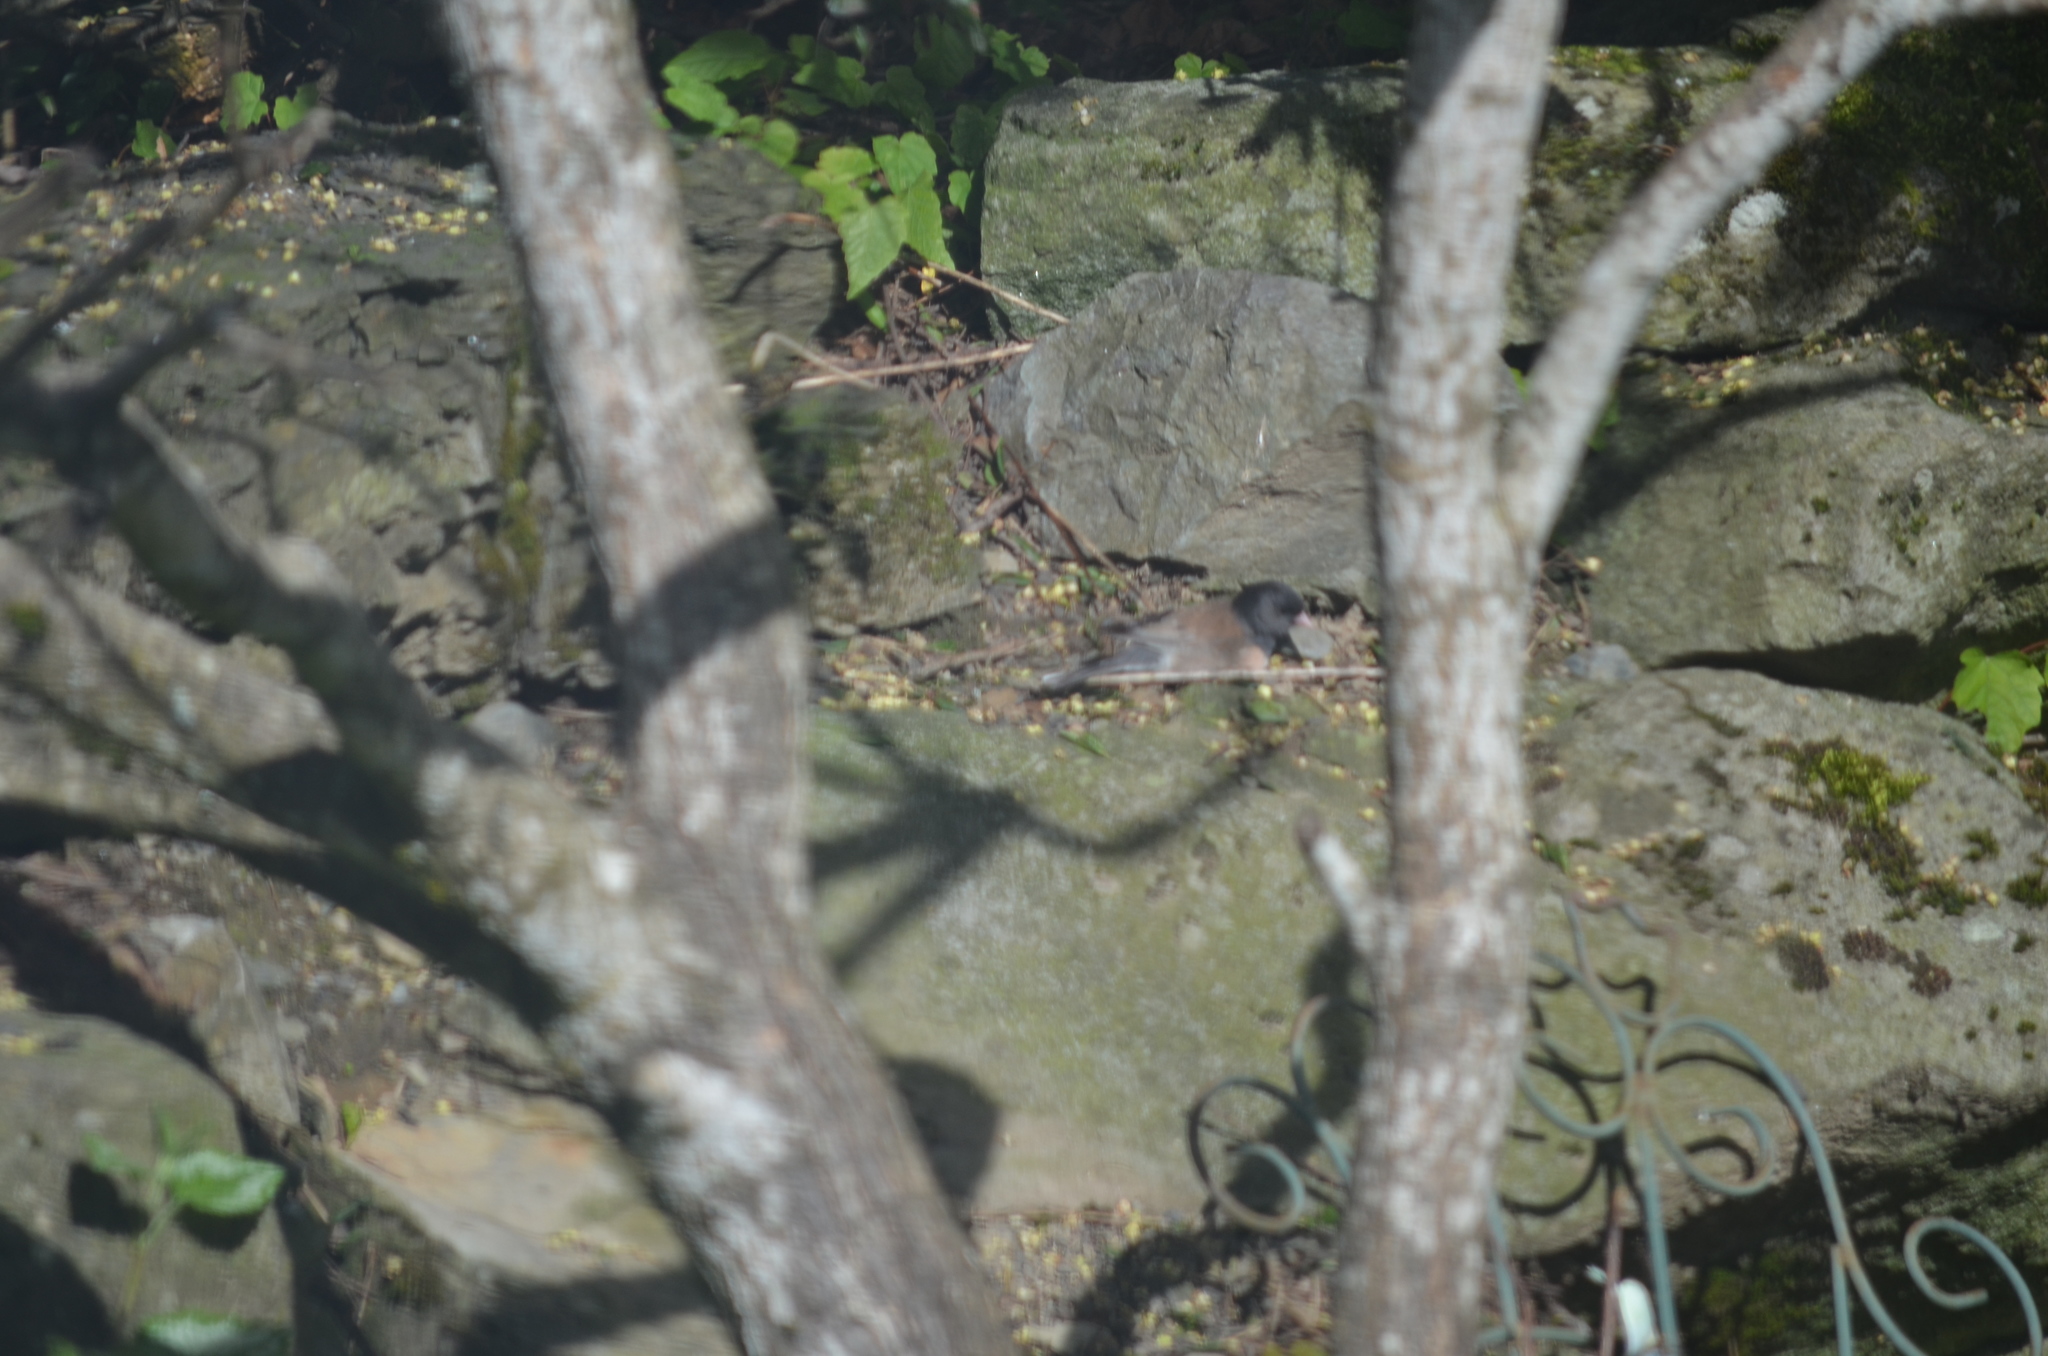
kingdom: Animalia
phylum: Chordata
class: Aves
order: Passeriformes
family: Passerellidae
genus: Junco
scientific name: Junco hyemalis
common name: Dark-eyed junco
